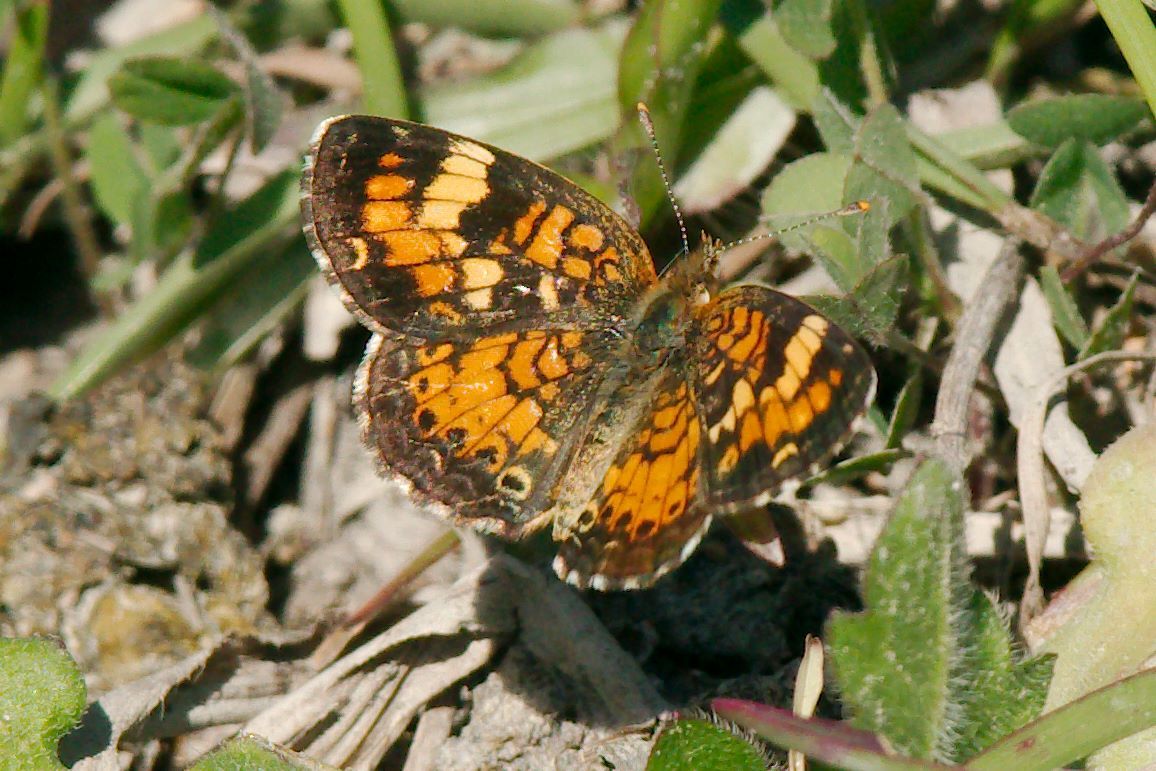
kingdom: Animalia
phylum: Arthropoda
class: Insecta
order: Lepidoptera
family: Nymphalidae
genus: Phyciodes
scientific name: Phyciodes phaon
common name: Phaon crescent
